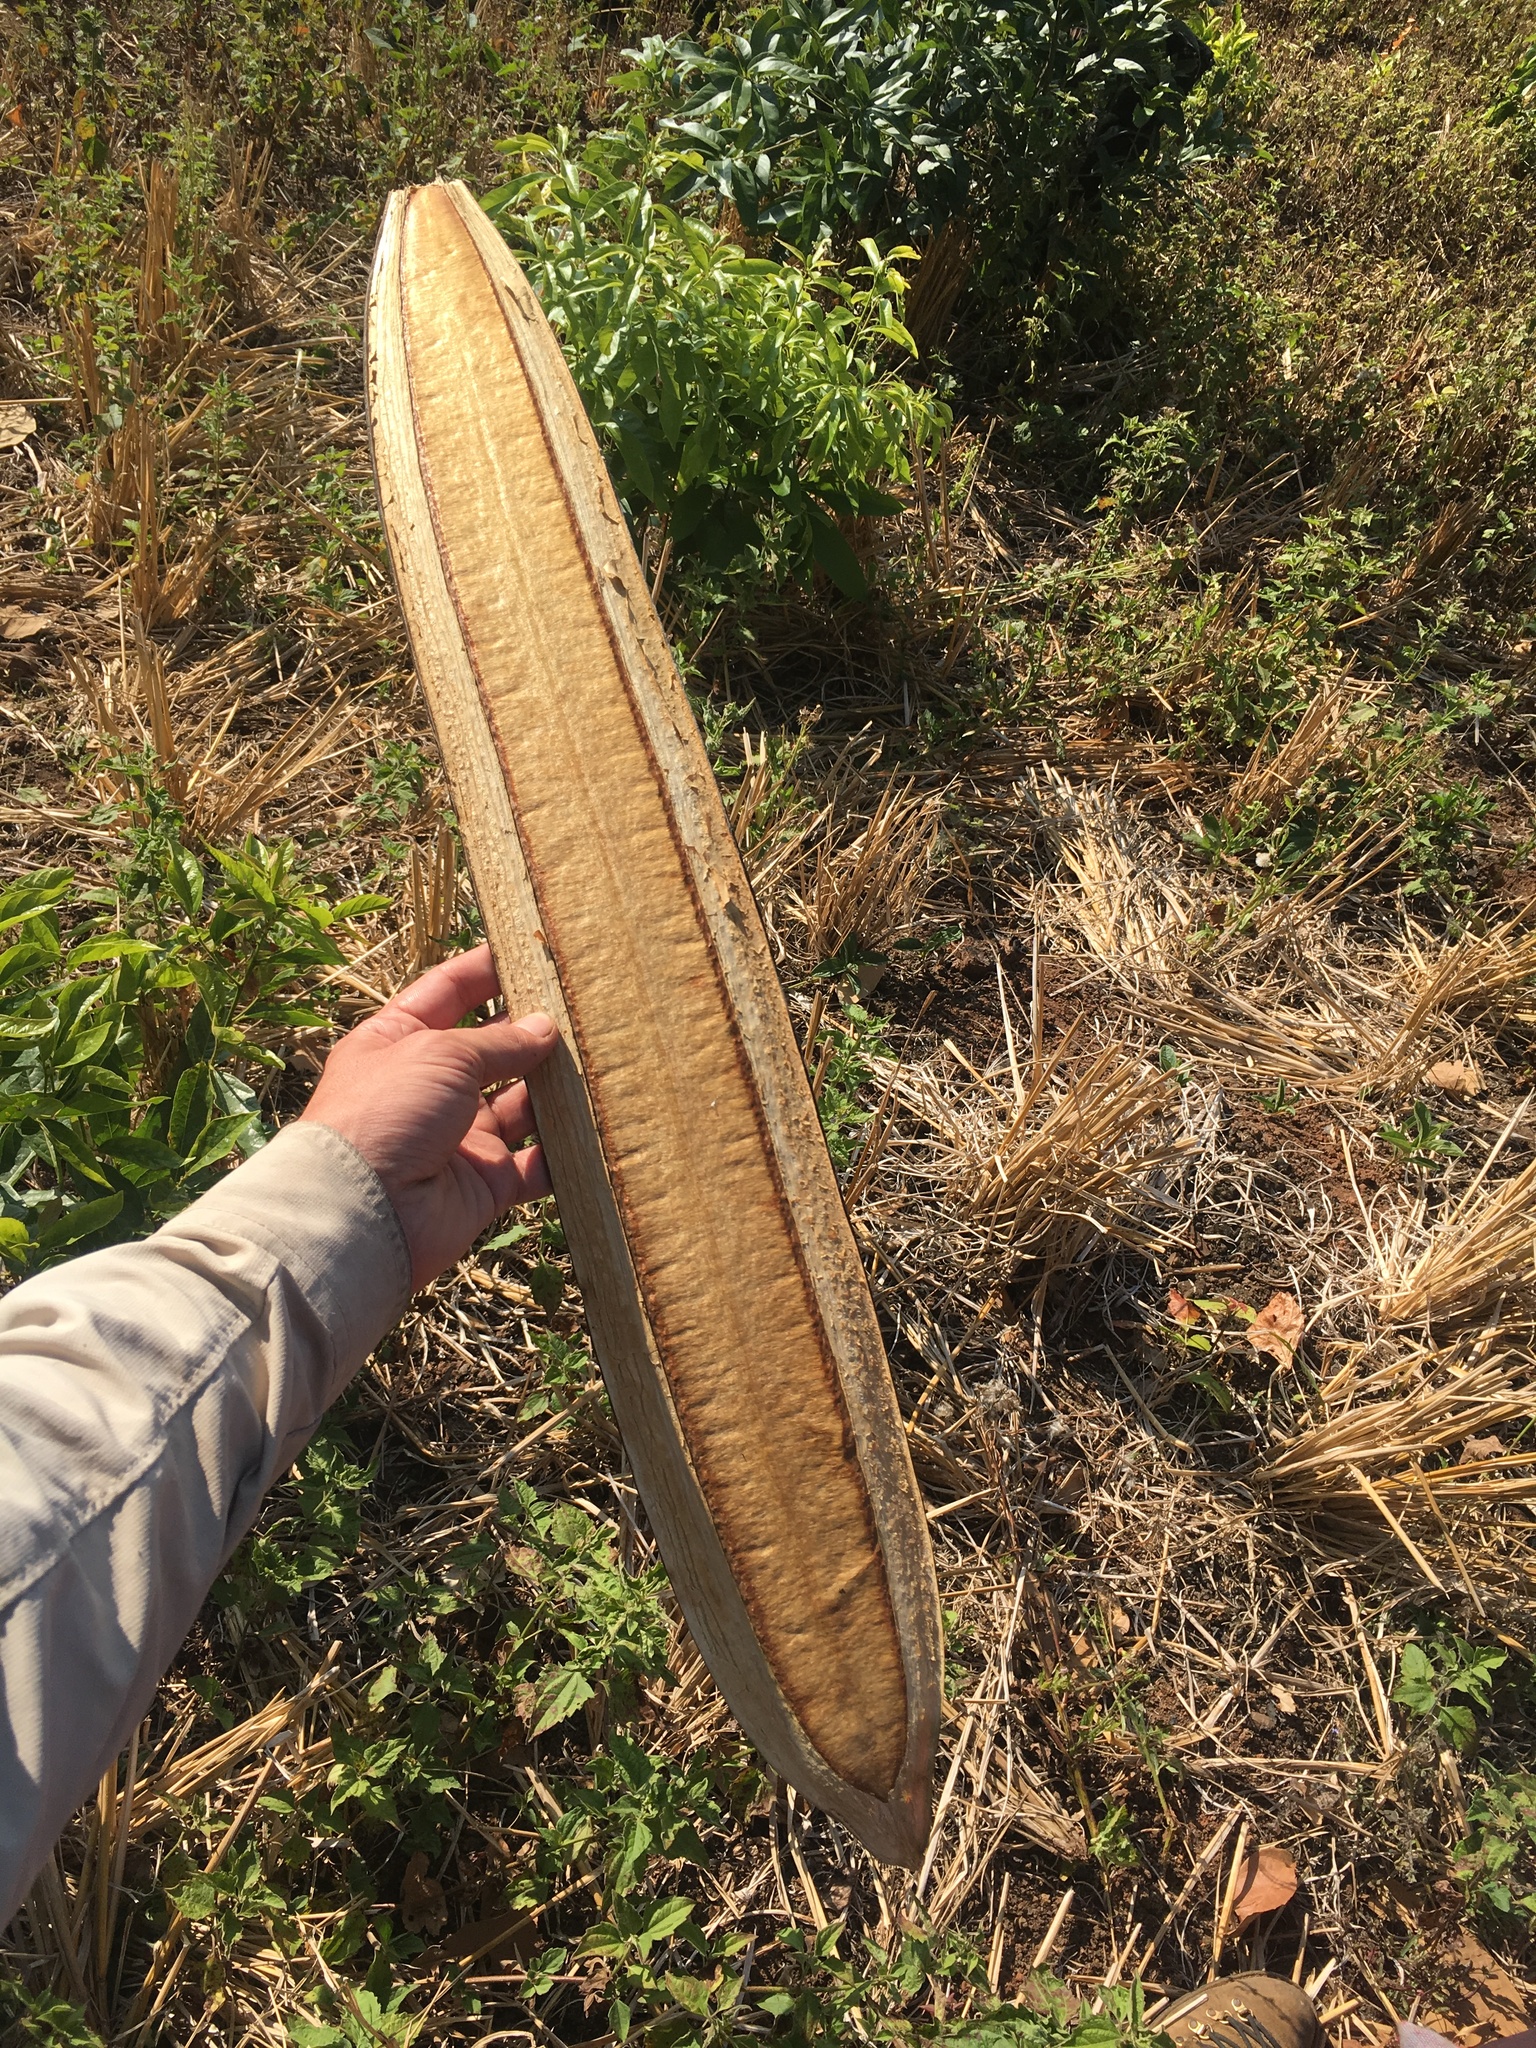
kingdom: Plantae
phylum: Tracheophyta
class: Magnoliopsida
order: Lamiales
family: Bignoniaceae
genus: Oroxylum
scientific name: Oroxylum indicum
